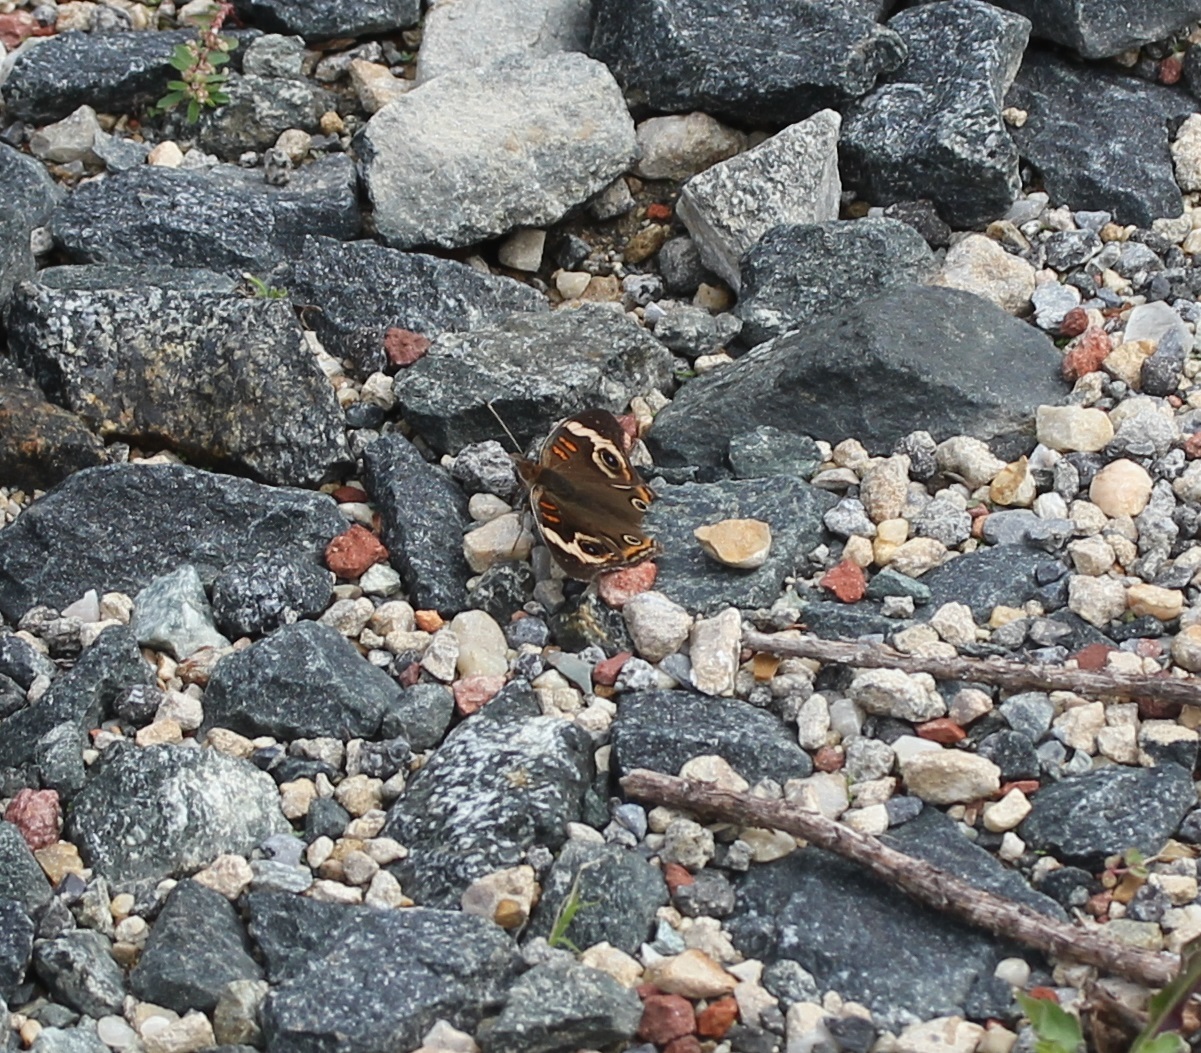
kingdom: Animalia
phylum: Arthropoda
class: Insecta
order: Lepidoptera
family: Nymphalidae
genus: Junonia
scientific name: Junonia coenia
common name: Common buckeye
